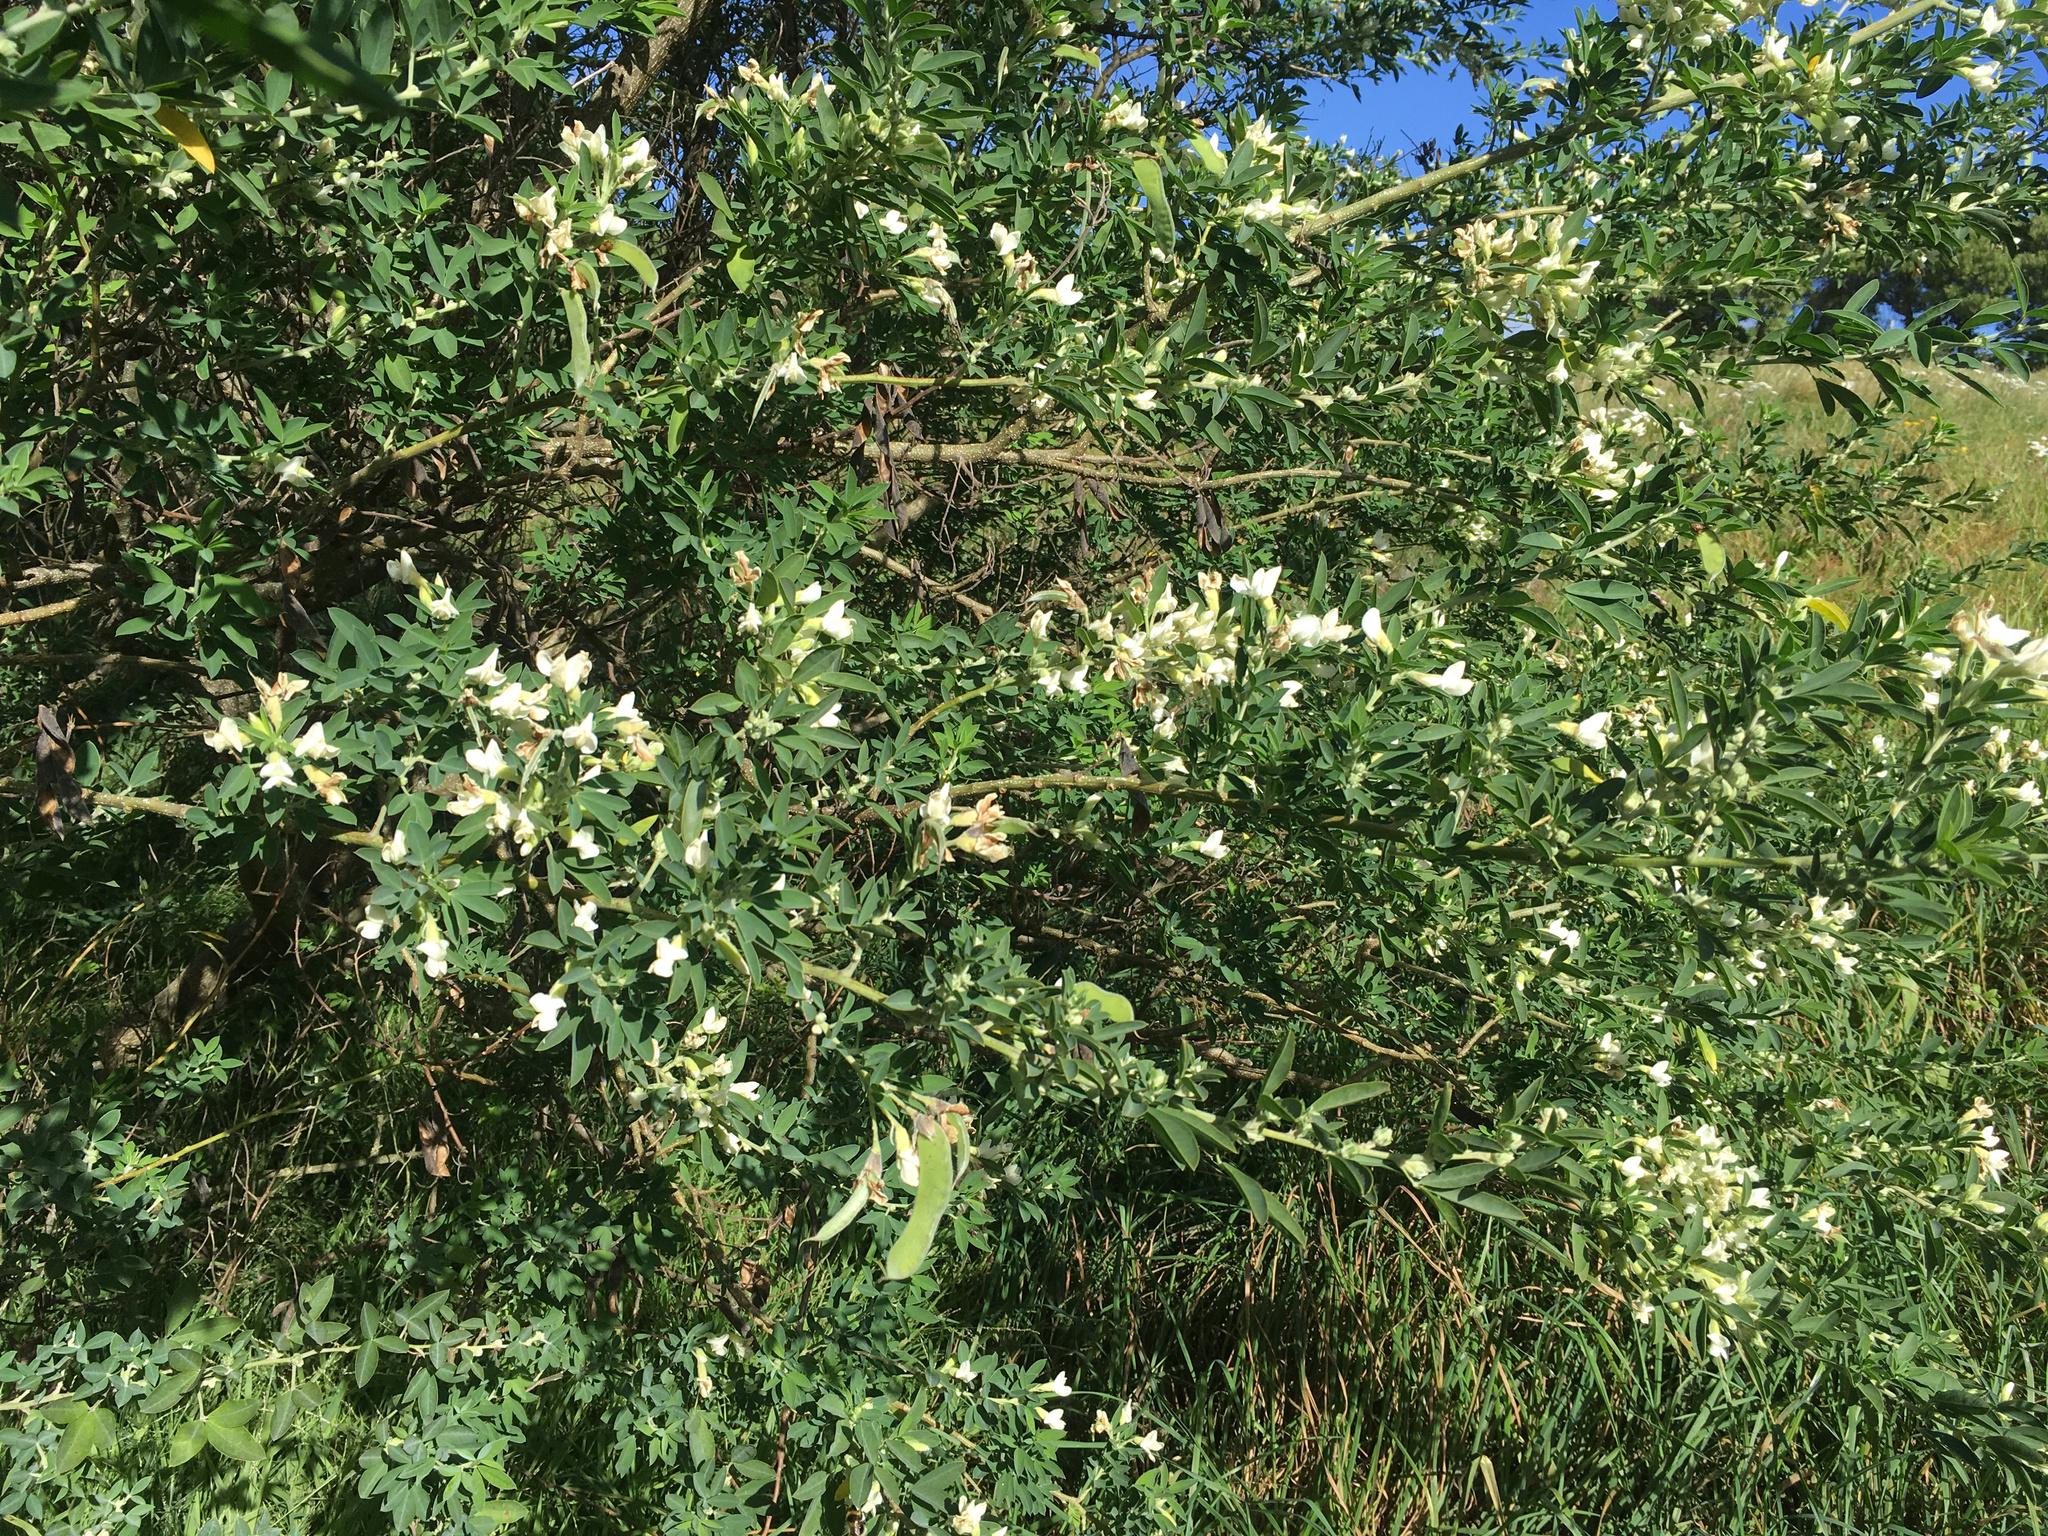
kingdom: Plantae
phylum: Tracheophyta
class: Magnoliopsida
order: Fabales
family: Fabaceae
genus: Chamaecytisus
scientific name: Chamaecytisus prolifer
